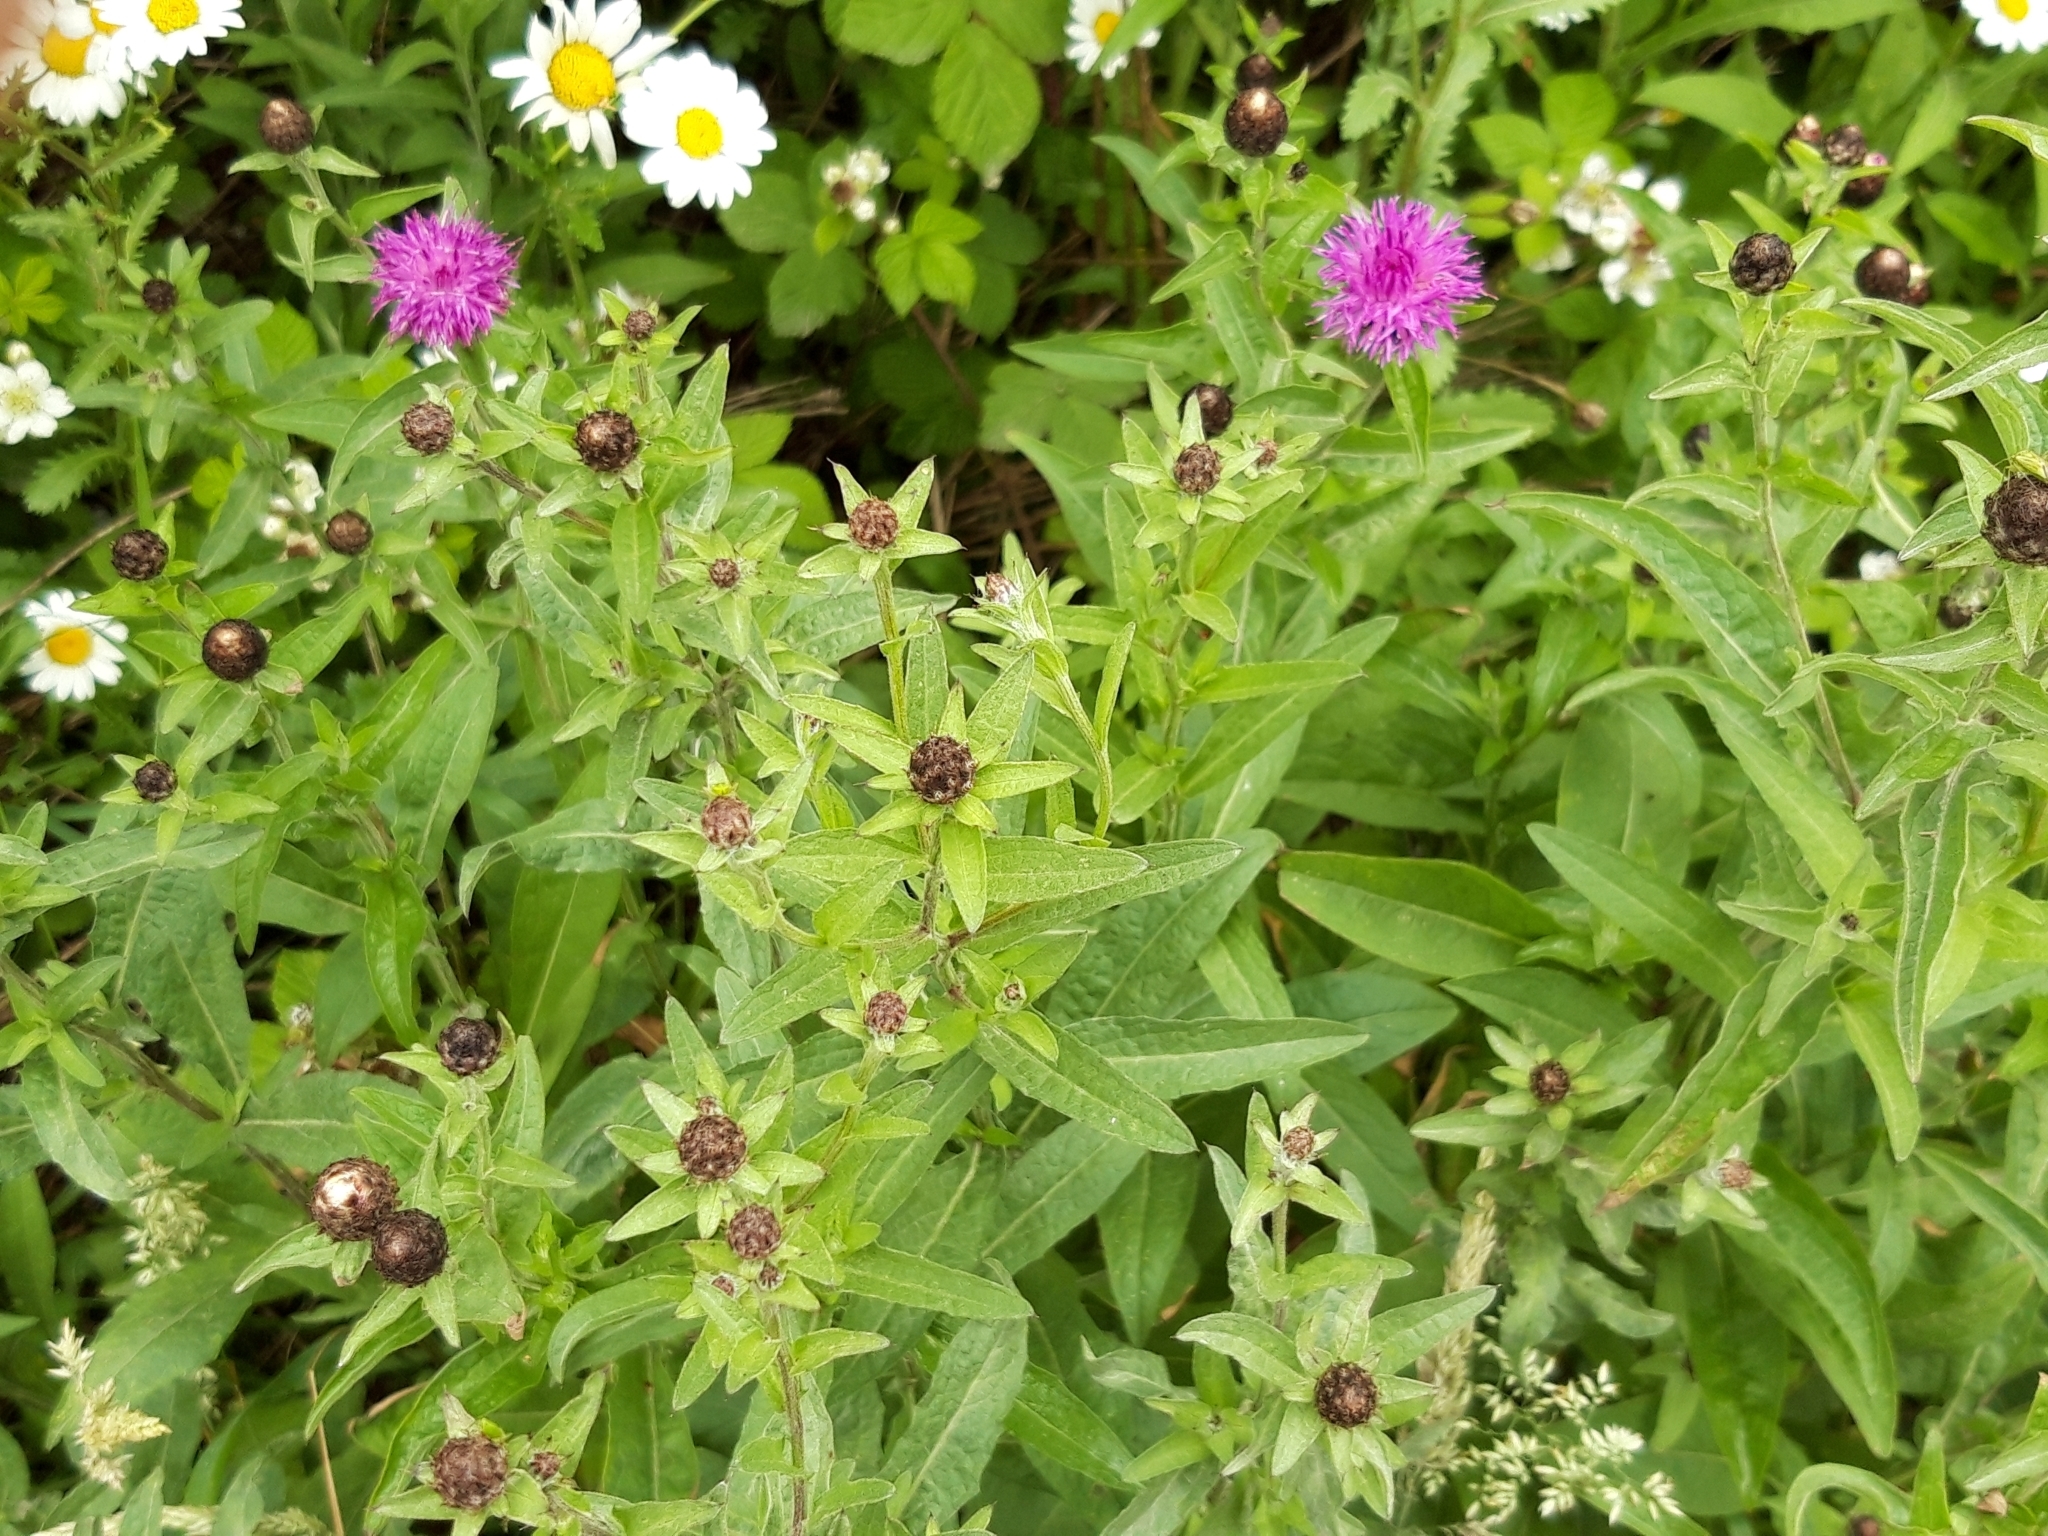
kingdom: Plantae
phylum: Tracheophyta
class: Magnoliopsida
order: Asterales
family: Asteraceae
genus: Centaurea
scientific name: Centaurea nigra
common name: Lesser knapweed
